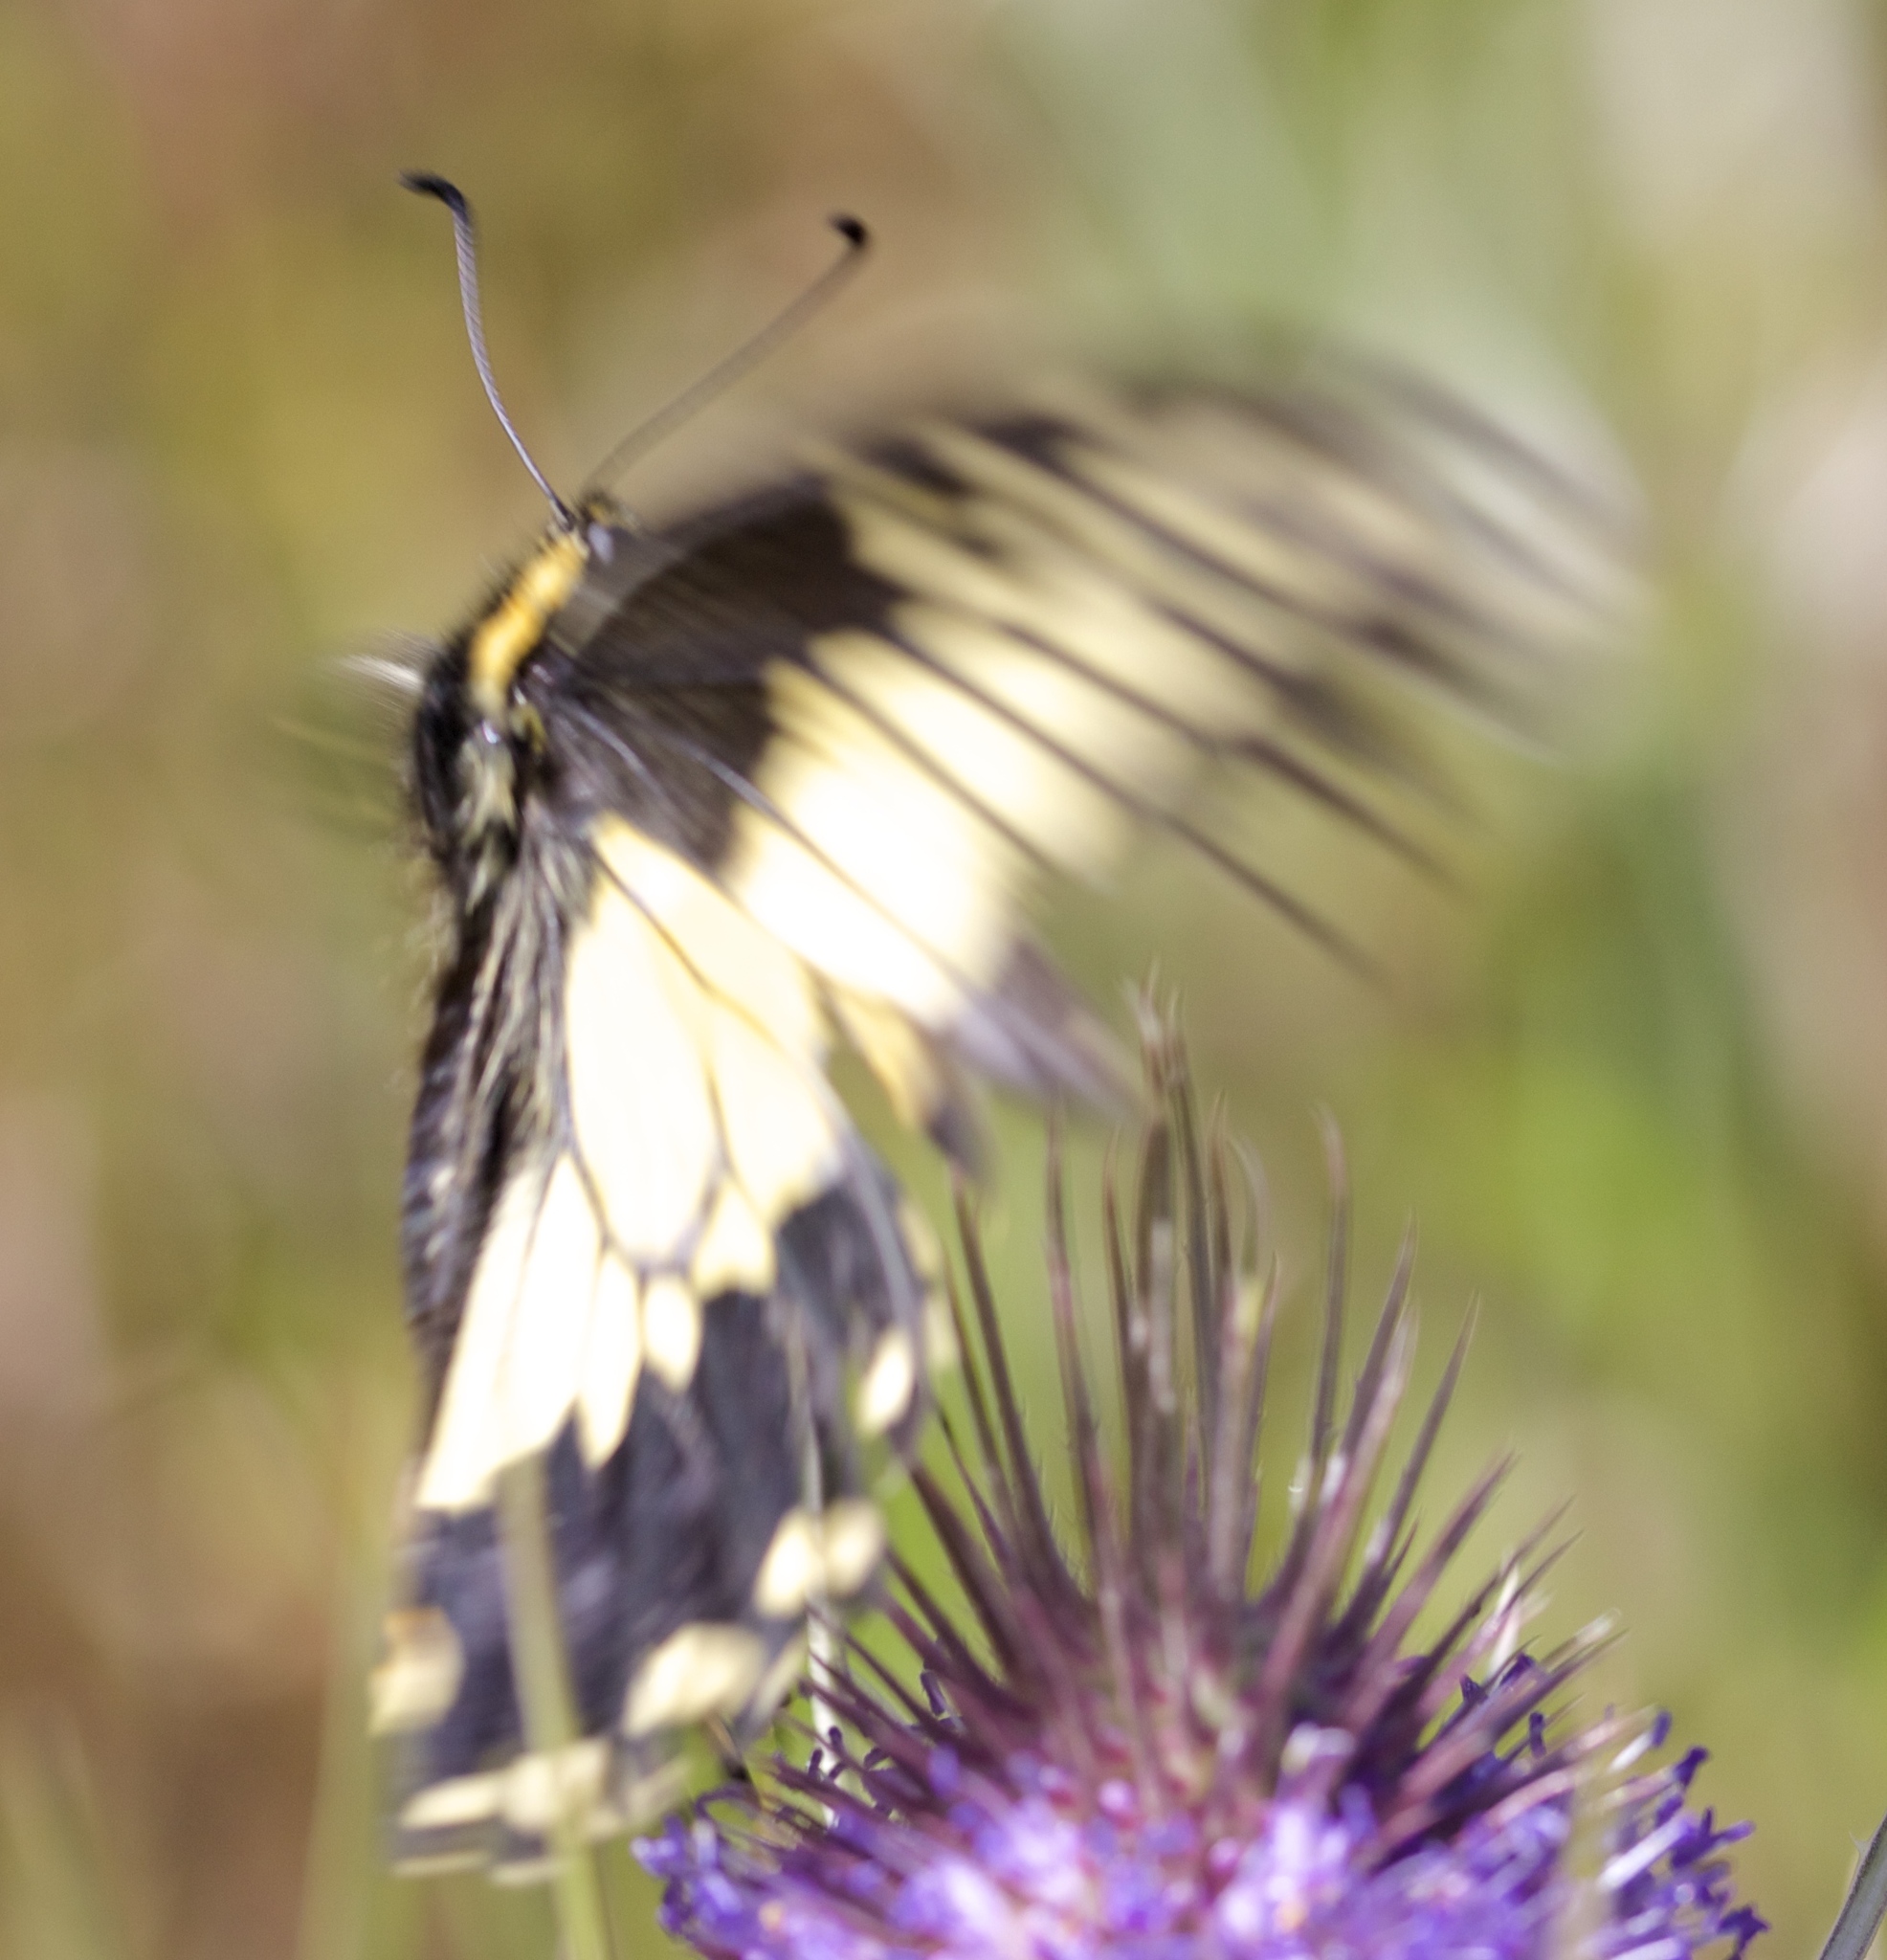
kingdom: Animalia
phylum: Arthropoda
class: Insecta
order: Lepidoptera
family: Papilionidae
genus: Papilio
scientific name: Papilio zelicaon
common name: Anise swallowtail
